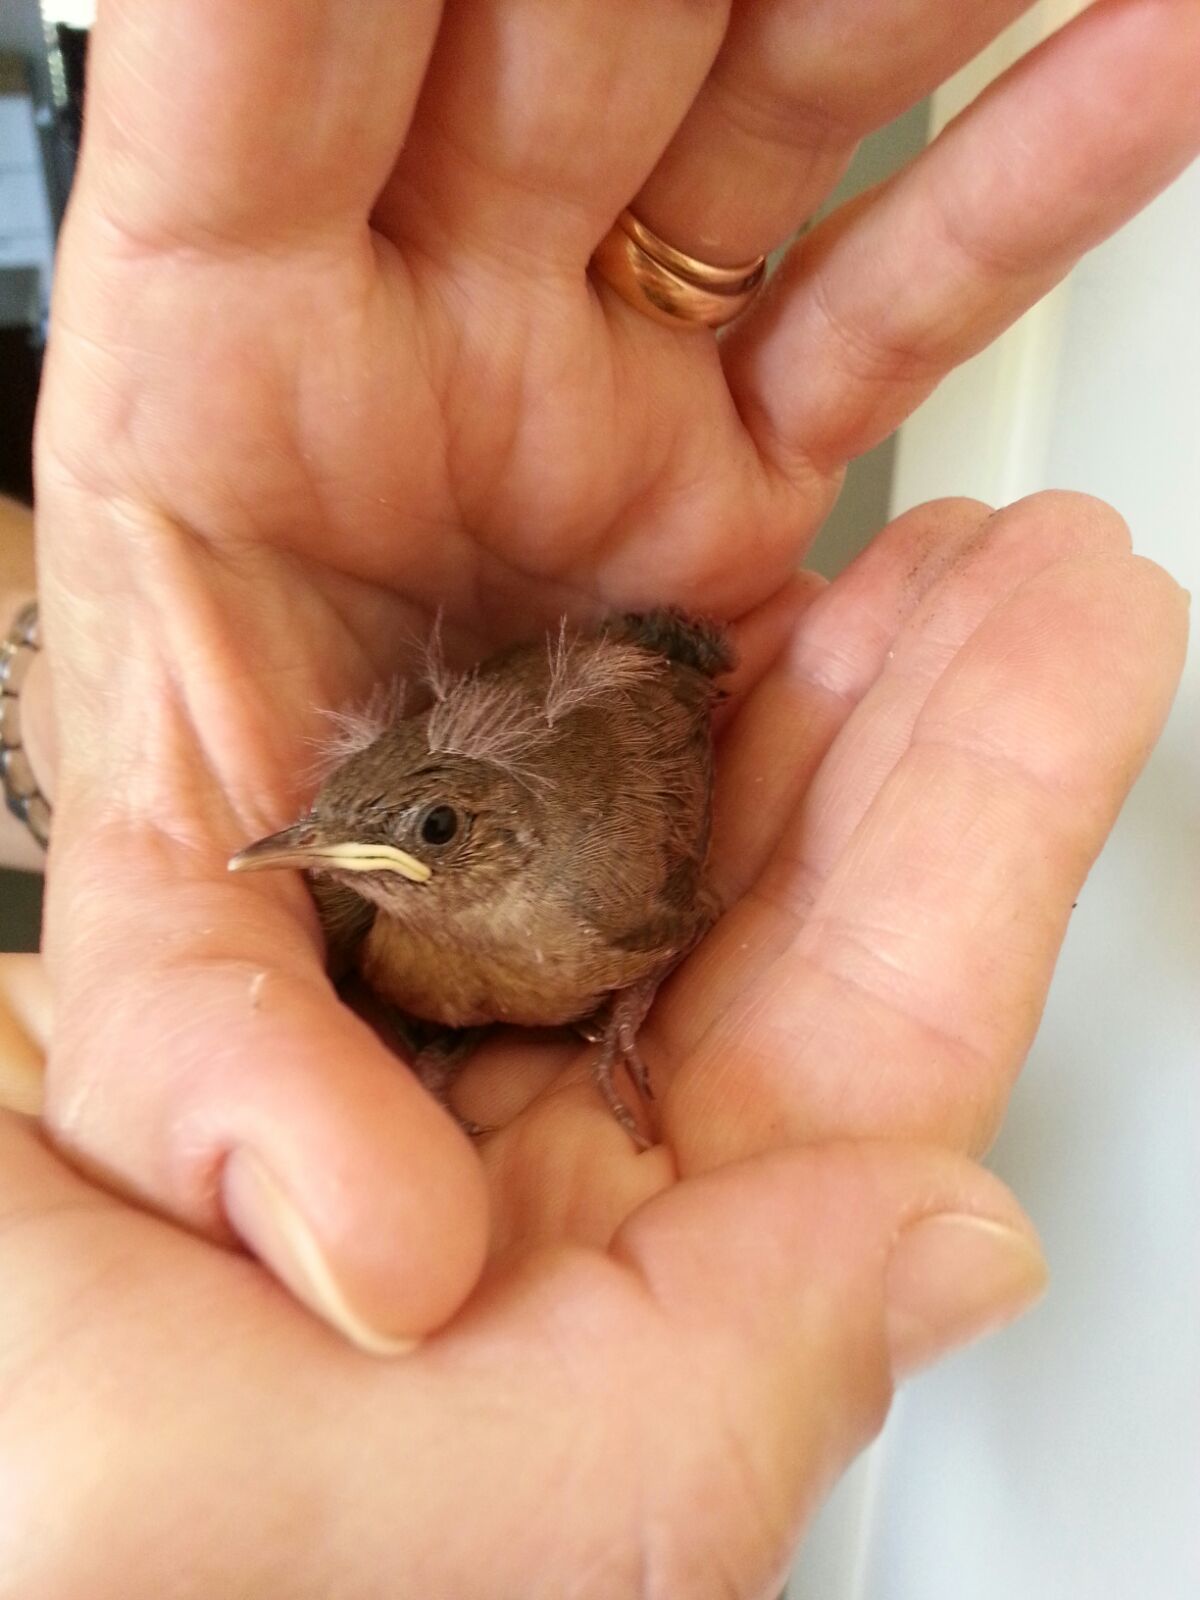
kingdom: Animalia
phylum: Chordata
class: Aves
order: Passeriformes
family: Troglodytidae
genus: Troglodytes
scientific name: Troglodytes aedon
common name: House wren
